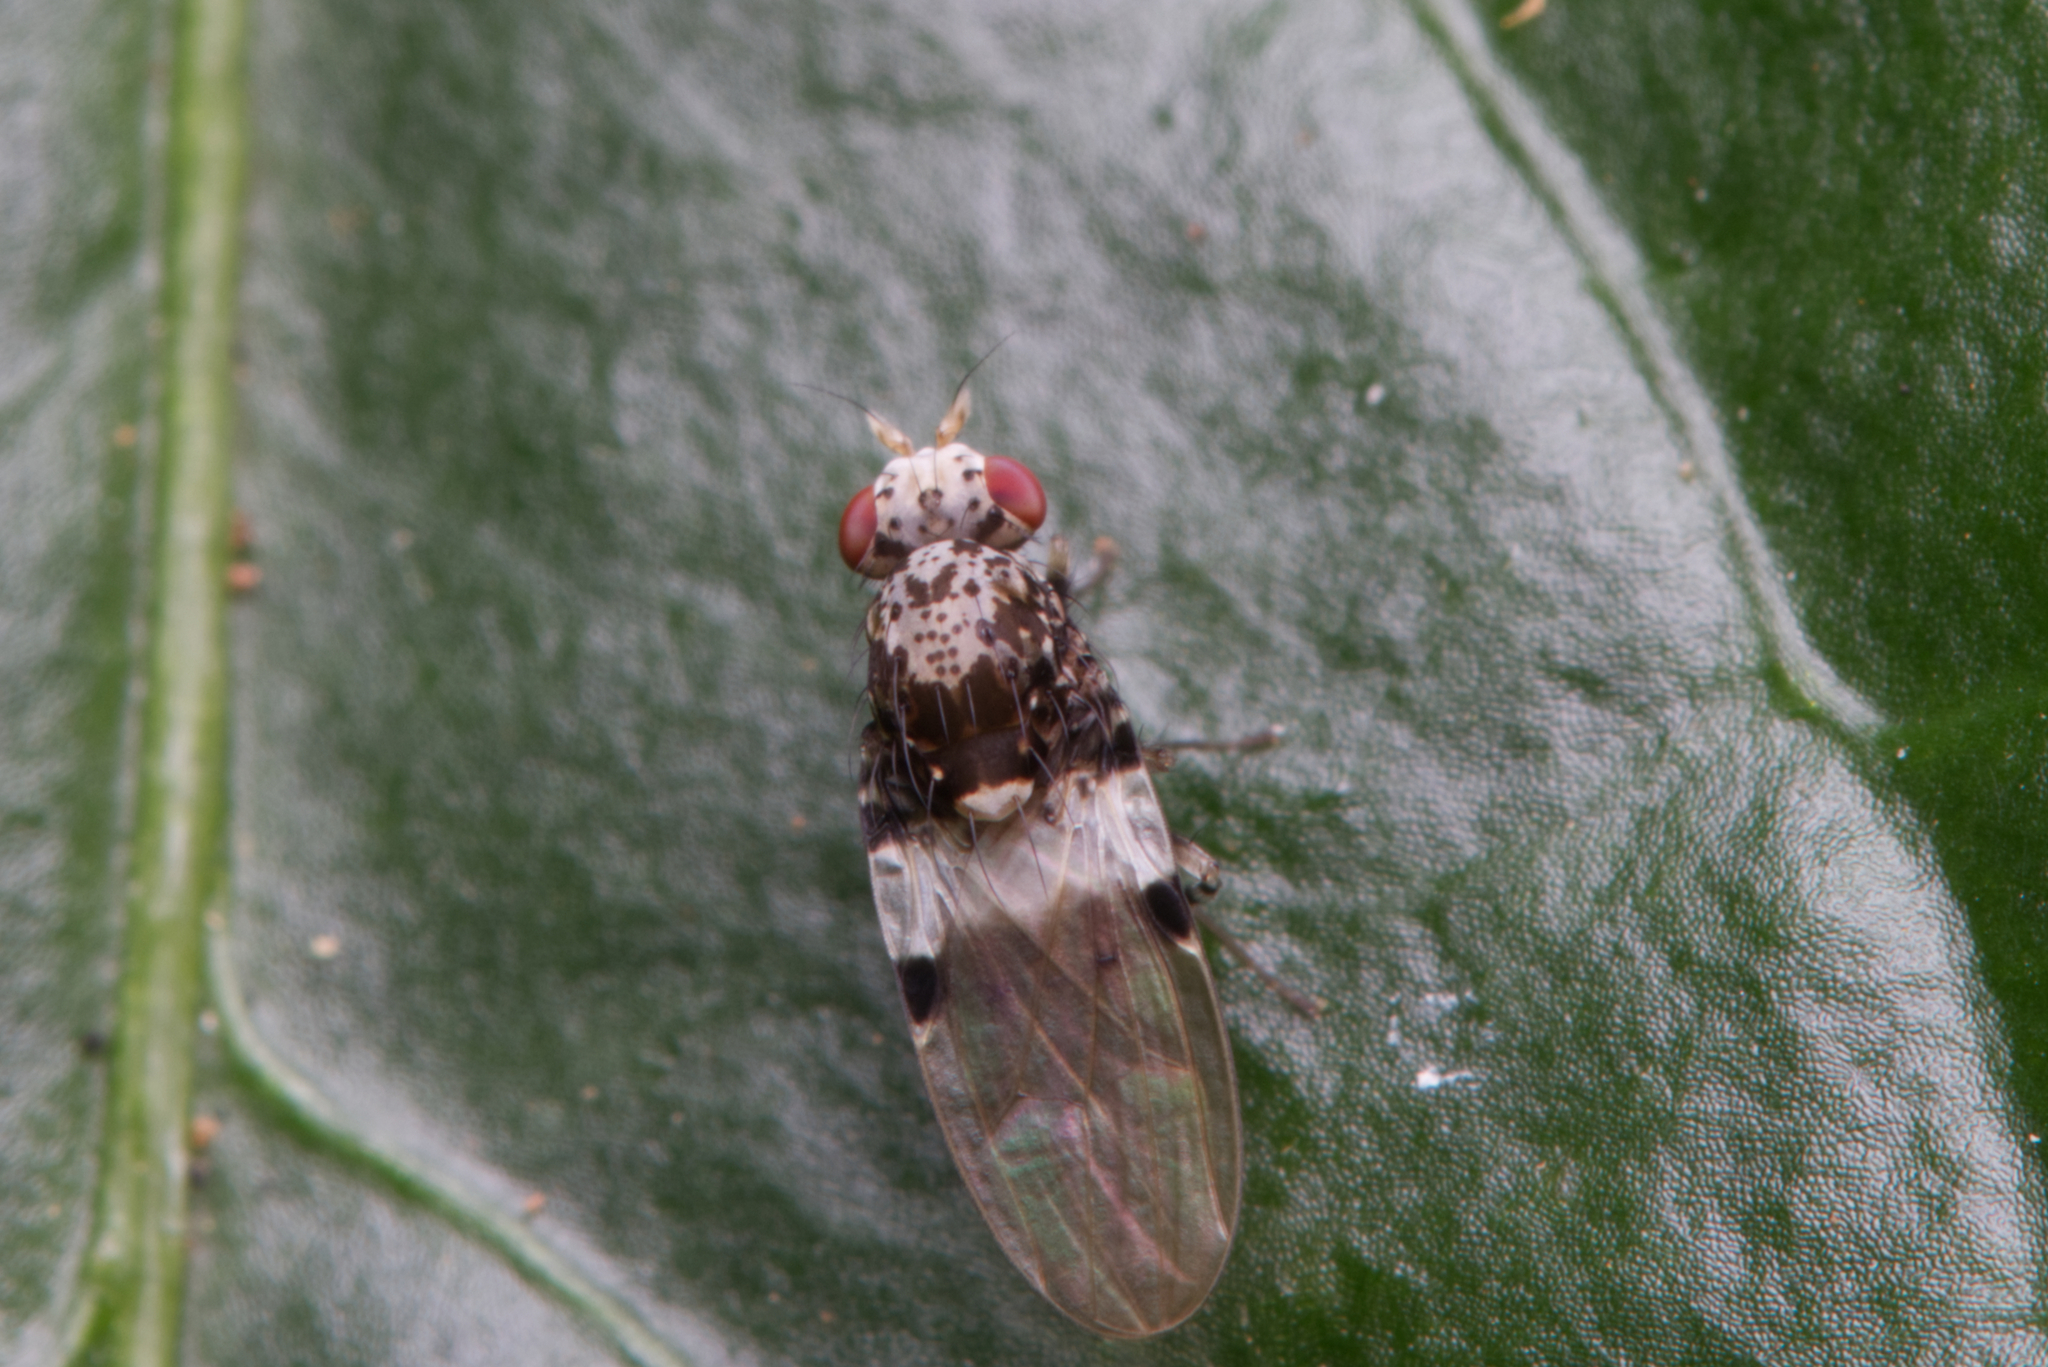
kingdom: Animalia
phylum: Arthropoda
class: Insecta
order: Diptera
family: Lauxaniidae
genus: Sapromyza
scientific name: Sapromyza pictigera
